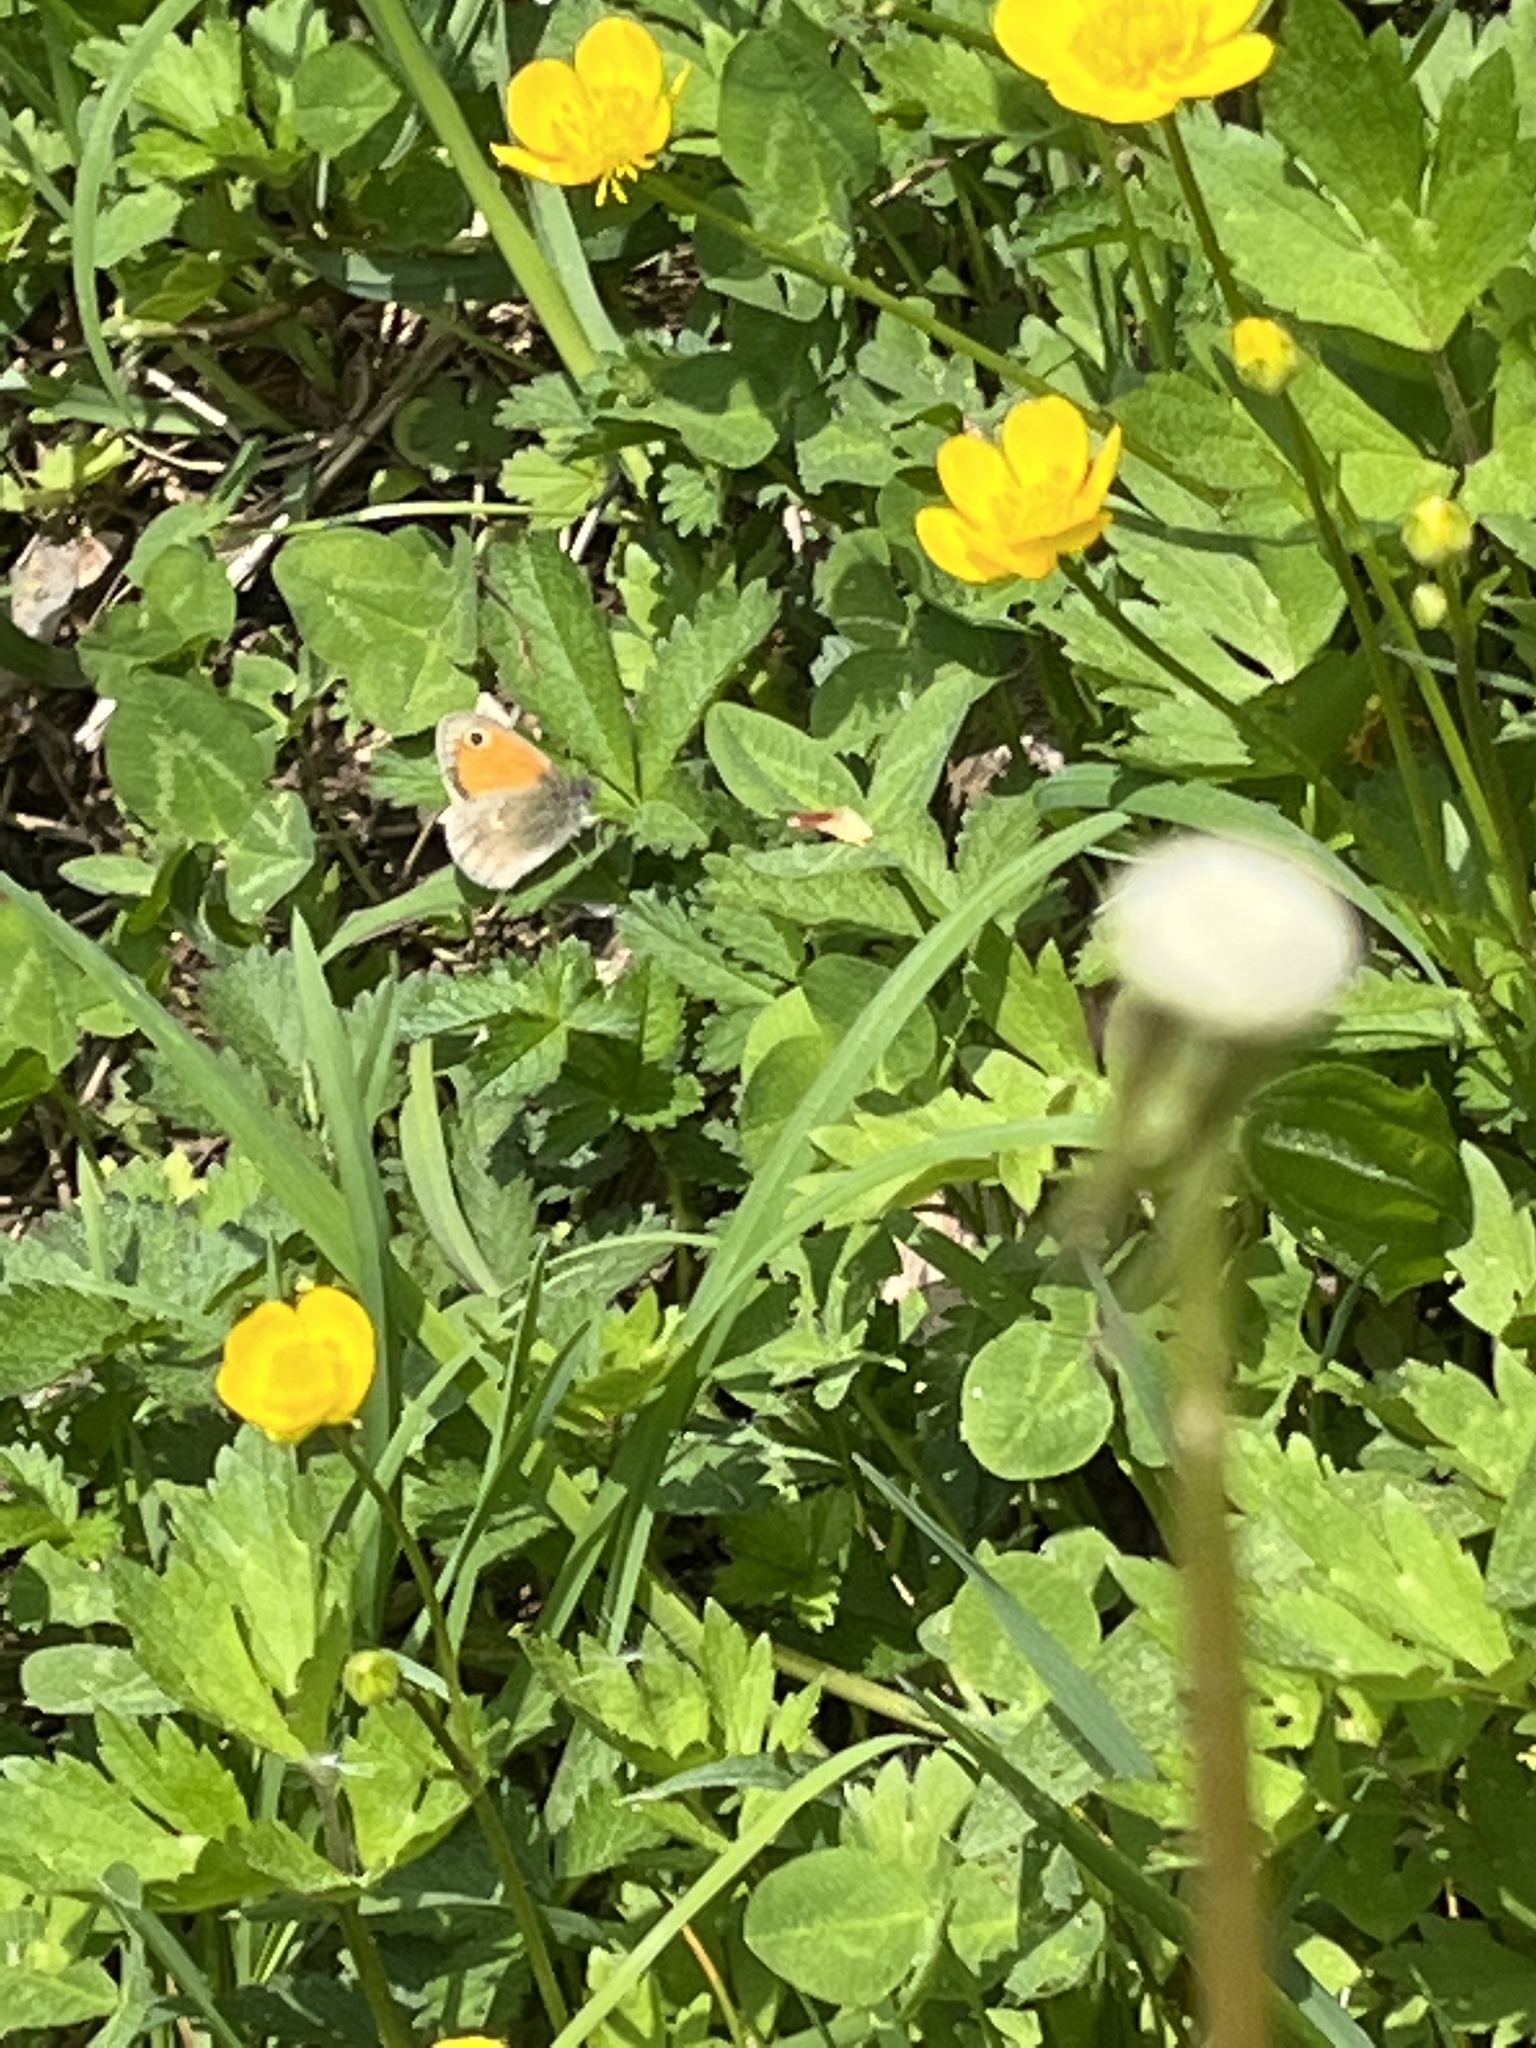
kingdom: Animalia
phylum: Arthropoda
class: Insecta
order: Lepidoptera
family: Nymphalidae
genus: Coenonympha
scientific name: Coenonympha pamphilus
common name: Small heath
